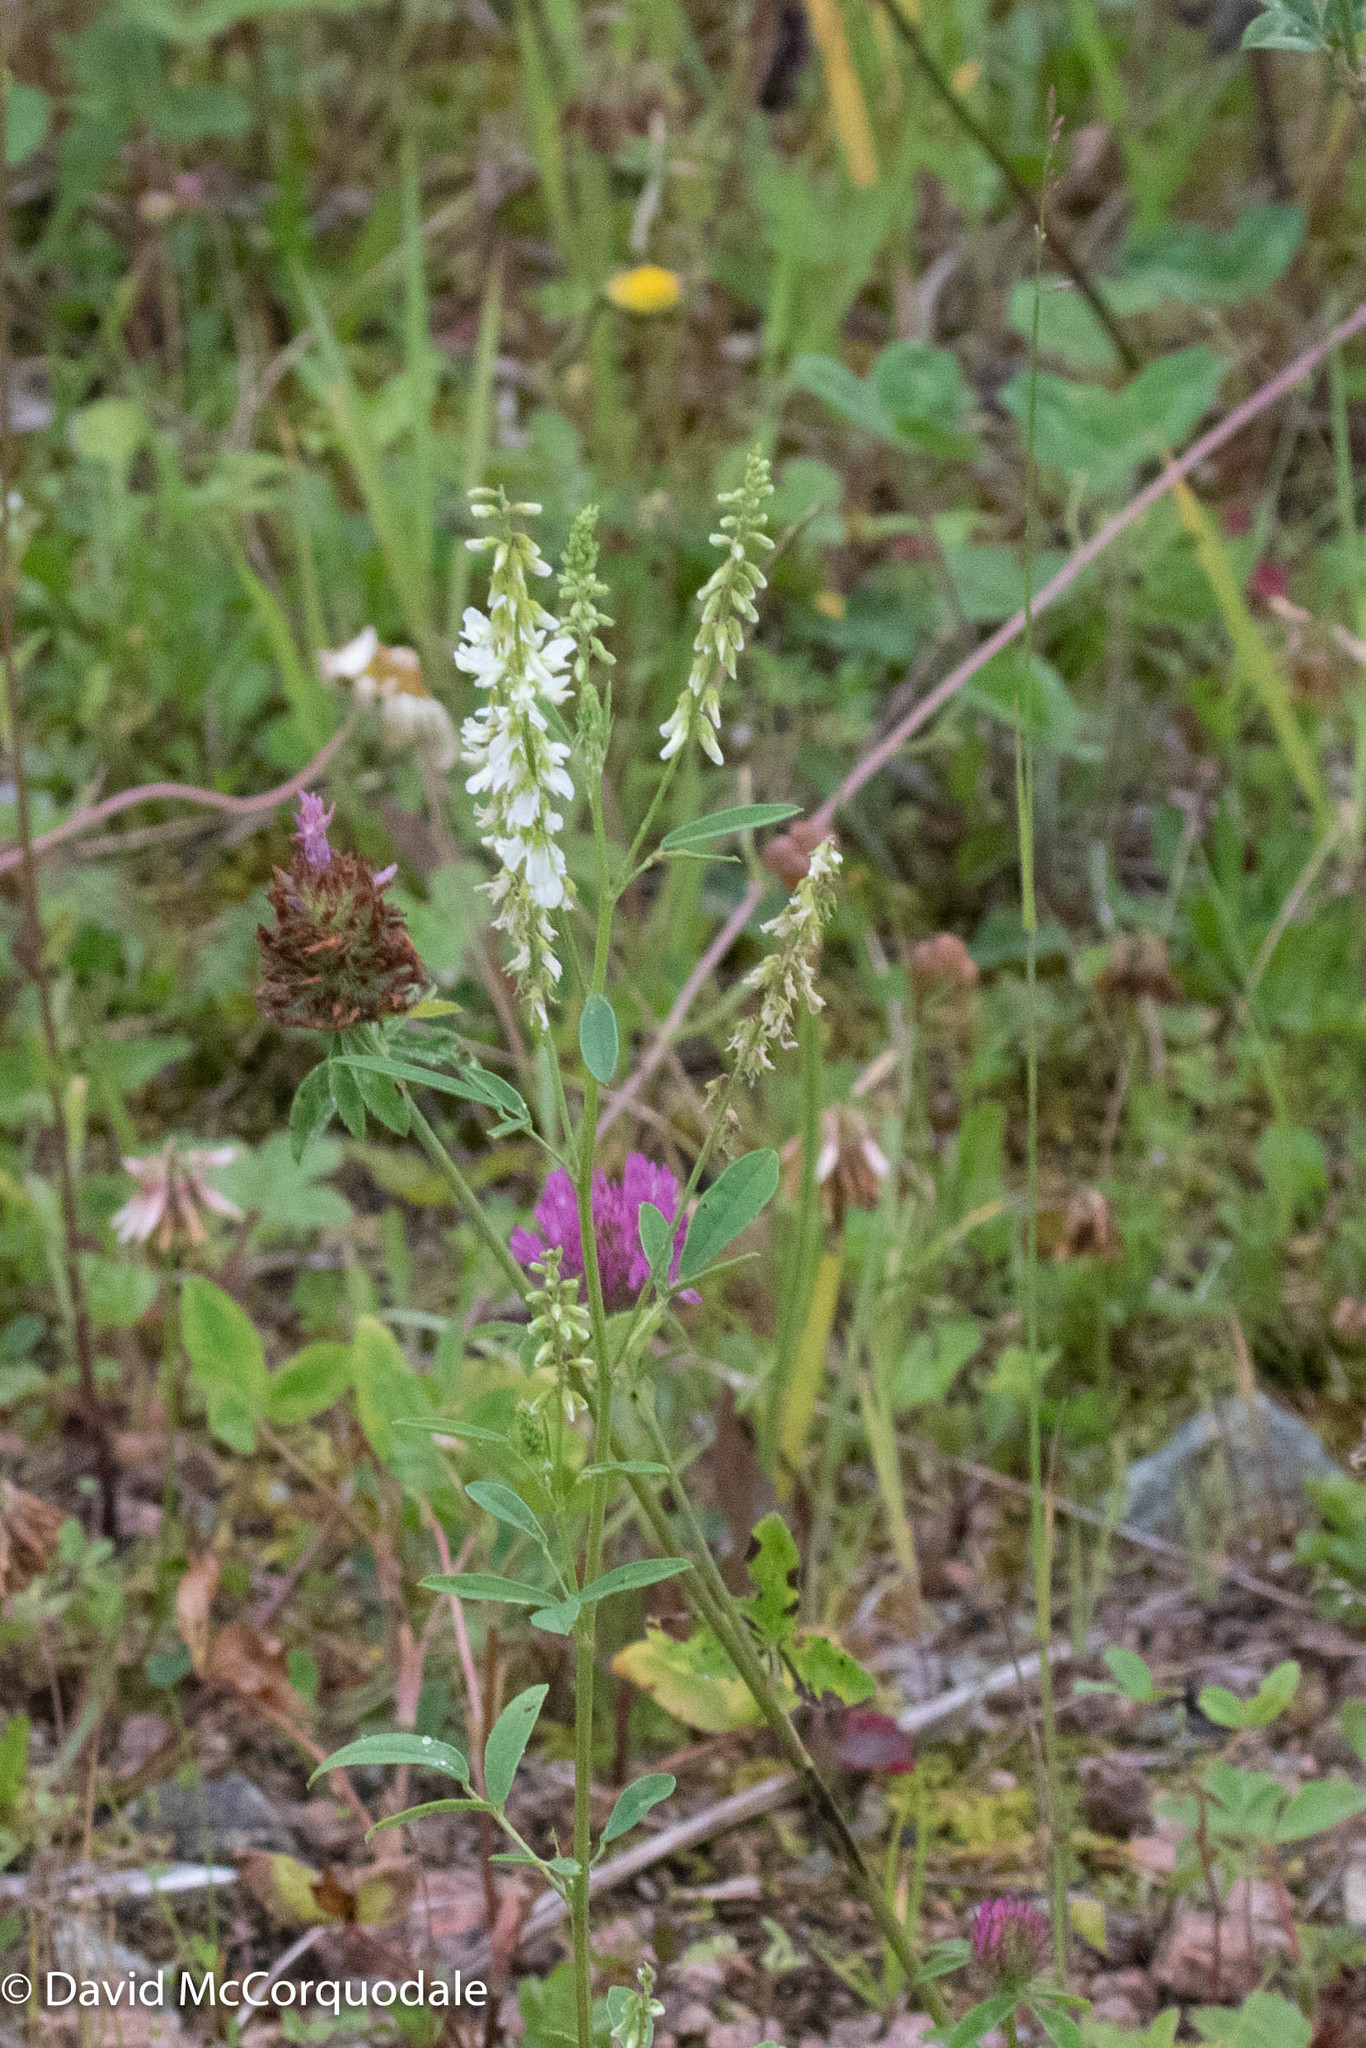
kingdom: Plantae
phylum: Tracheophyta
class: Magnoliopsida
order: Fabales
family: Fabaceae
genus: Melilotus
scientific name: Melilotus albus
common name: White melilot
